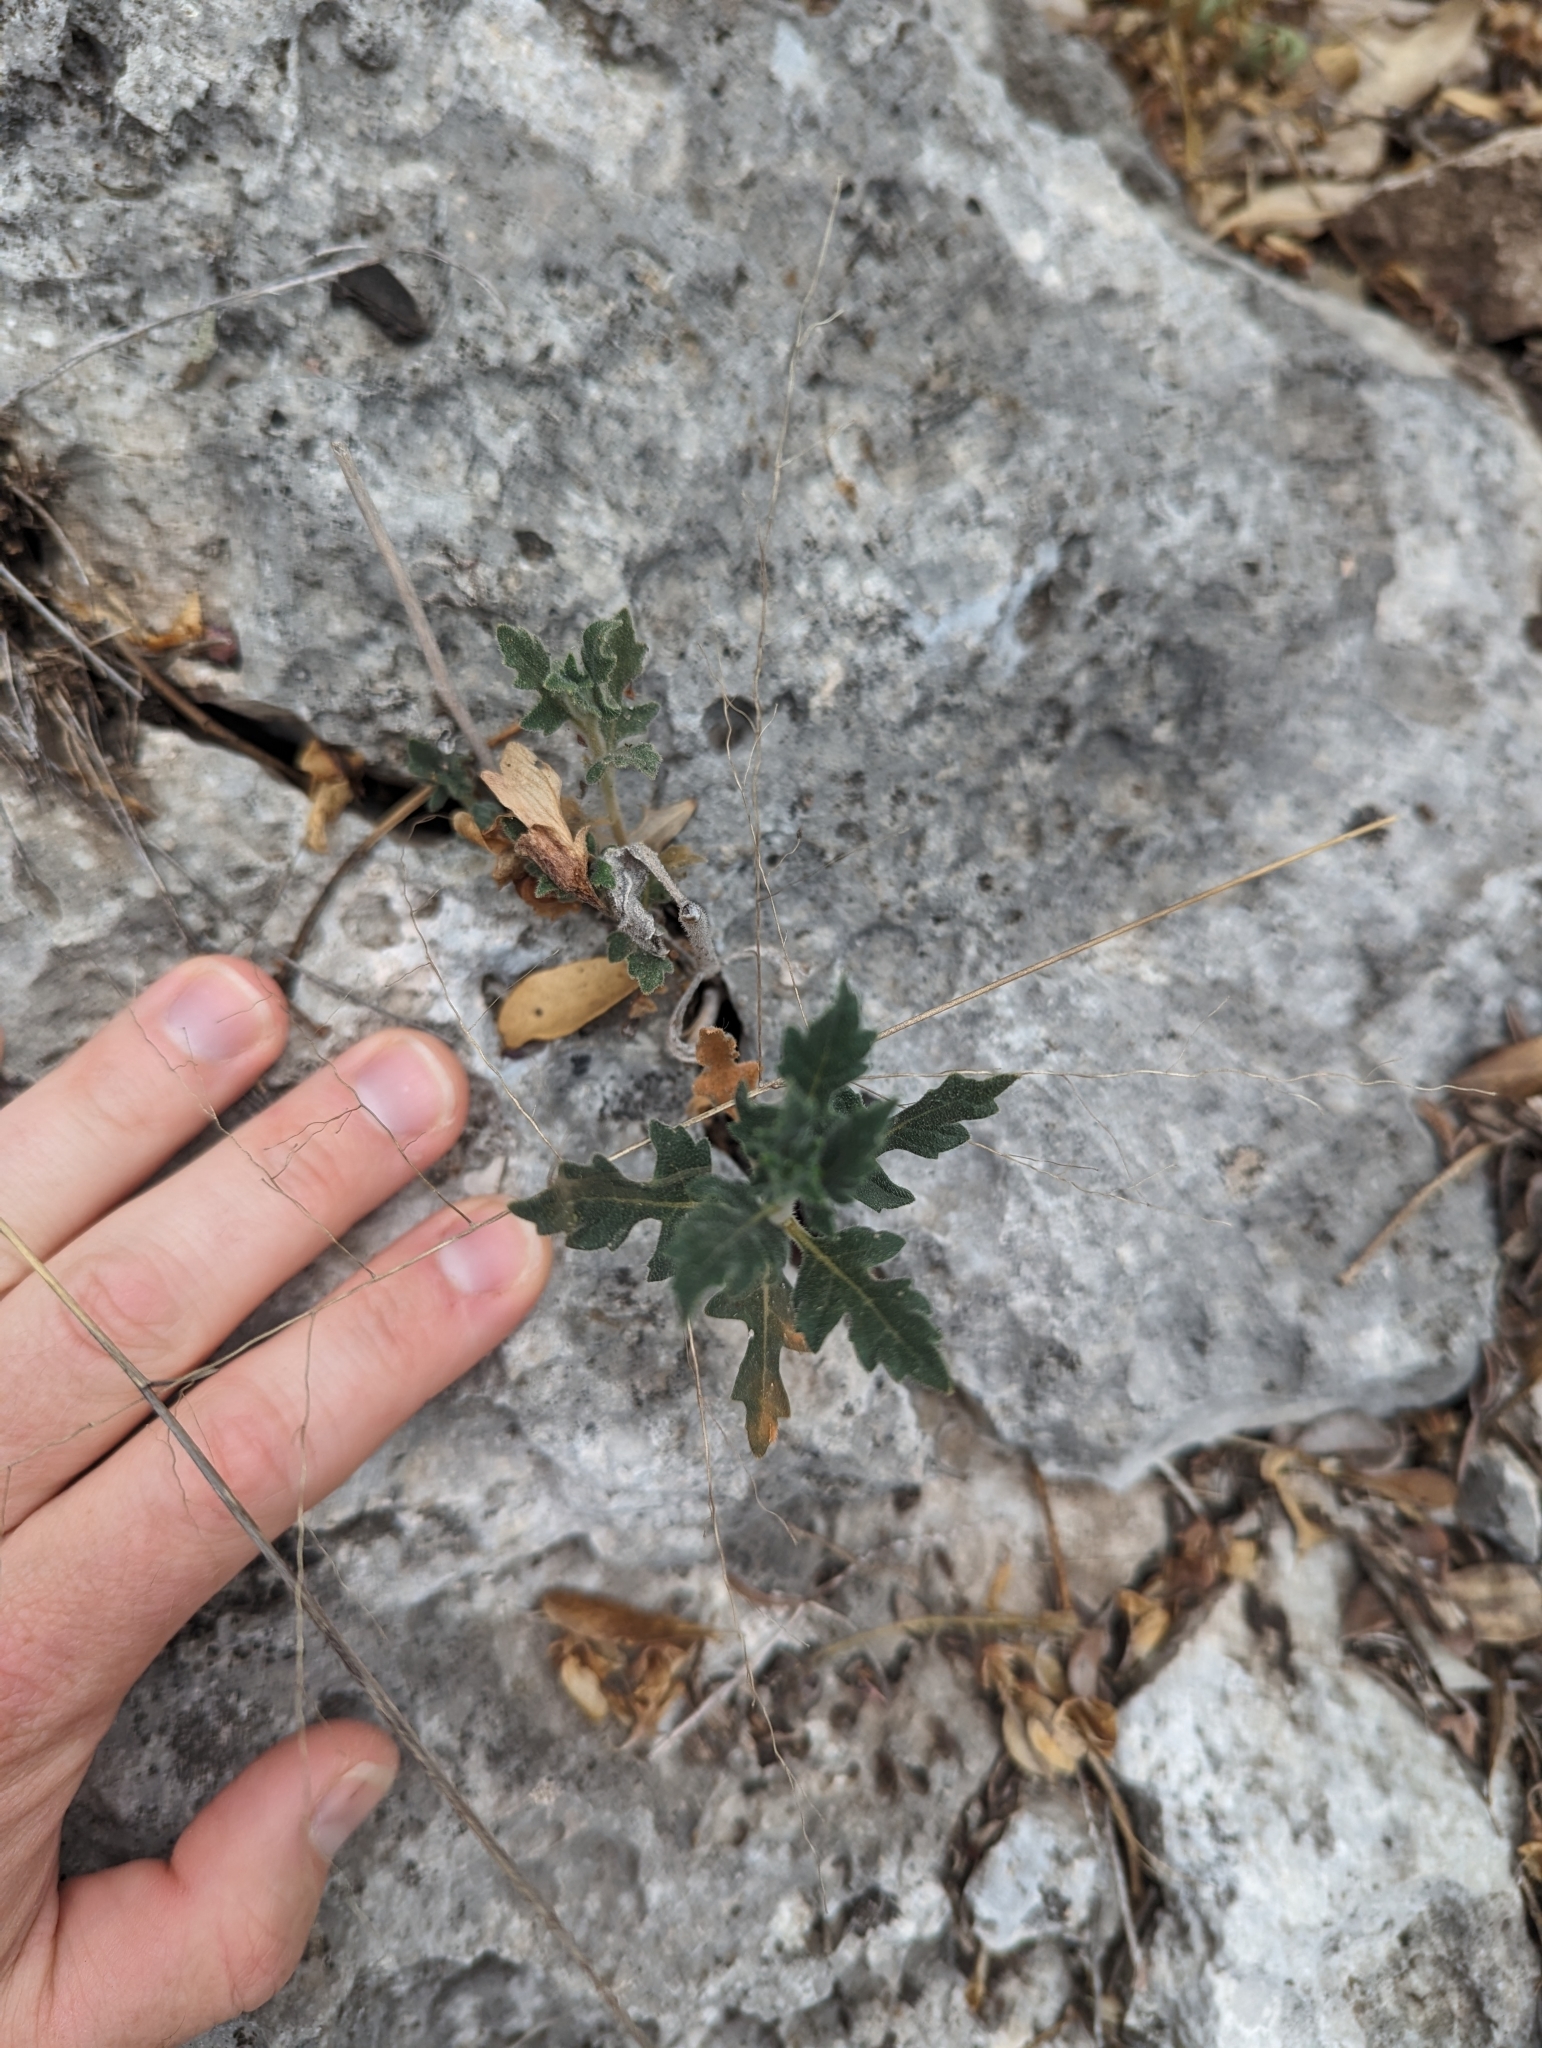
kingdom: Plantae
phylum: Tracheophyta
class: Magnoliopsida
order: Cornales
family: Loasaceae
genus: Mentzelia
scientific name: Mentzelia oligosperma
